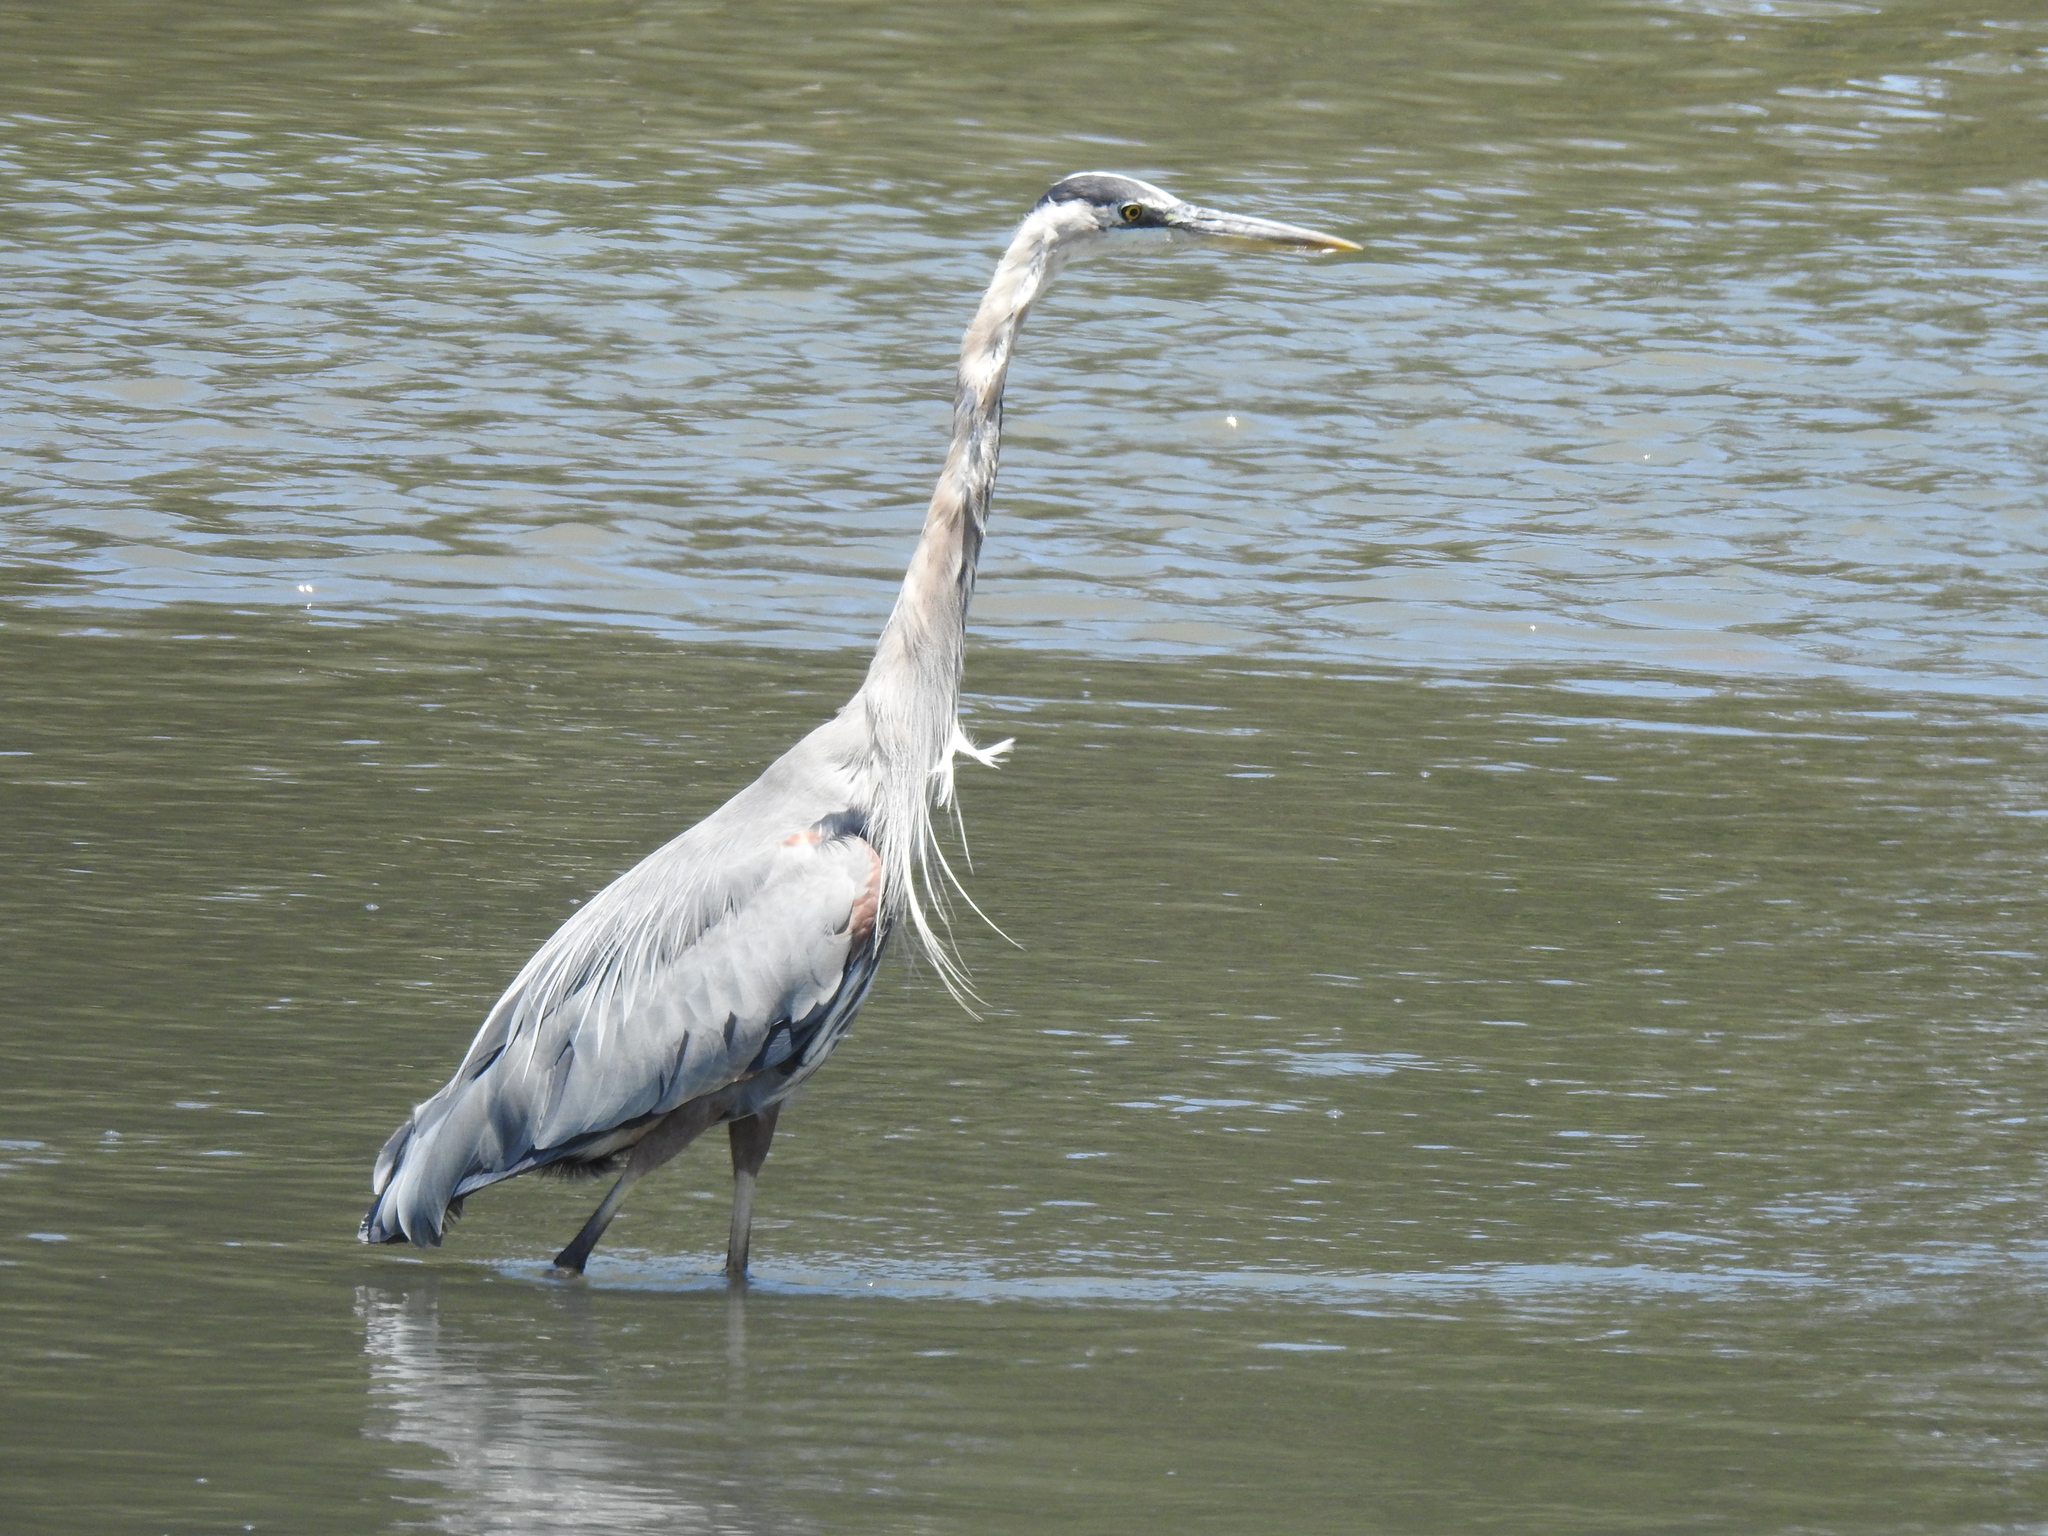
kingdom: Animalia
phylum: Chordata
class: Aves
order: Pelecaniformes
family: Ardeidae
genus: Ardea
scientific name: Ardea herodias
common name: Great blue heron
